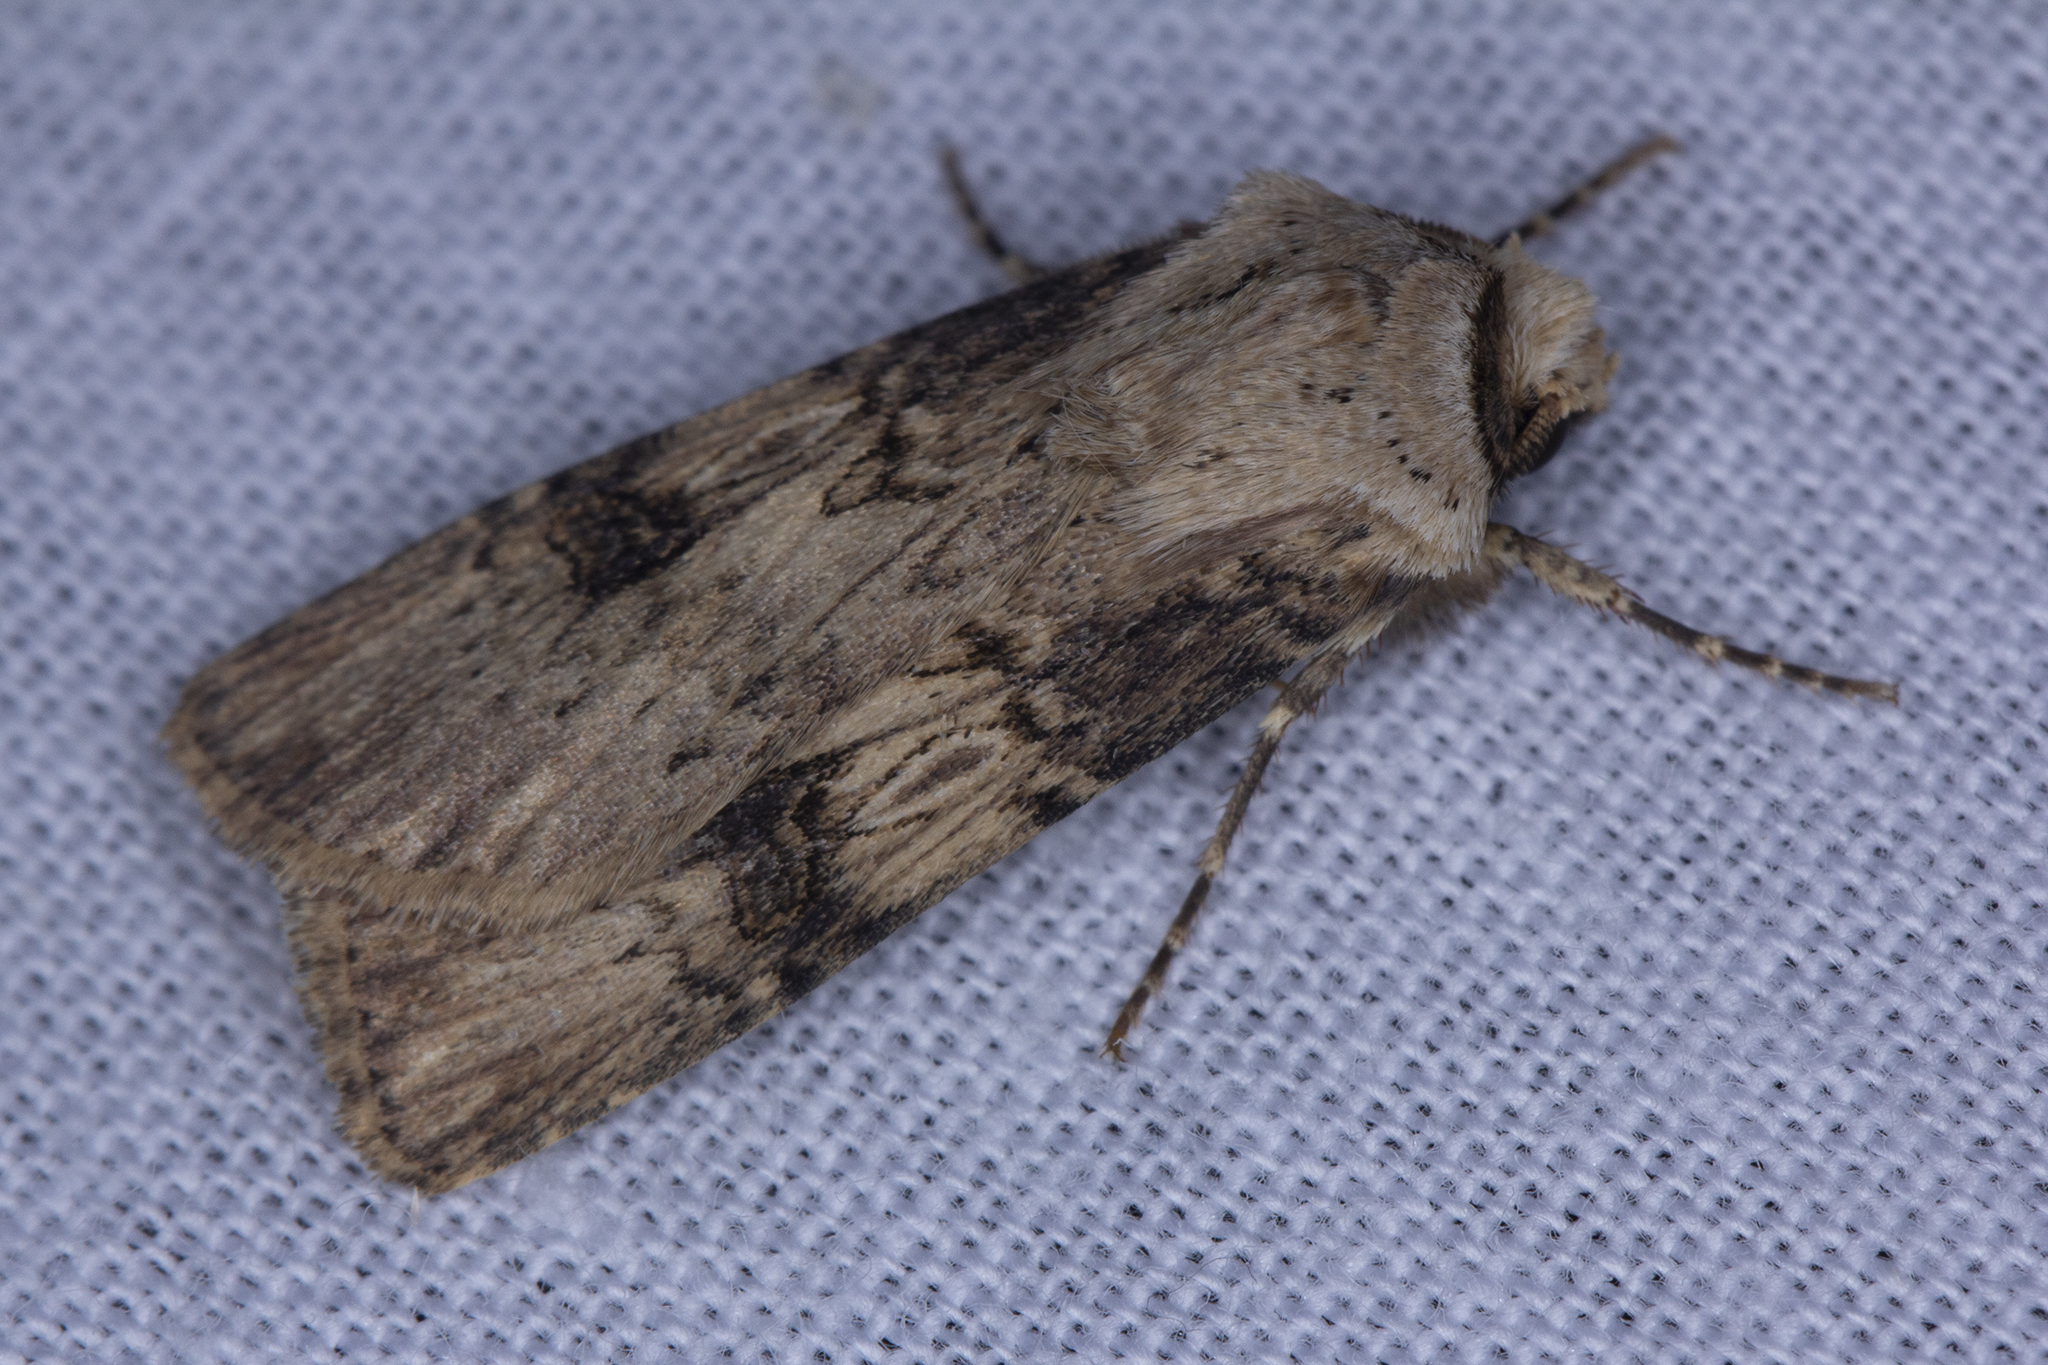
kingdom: Animalia
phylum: Arthropoda
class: Insecta
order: Lepidoptera
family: Noctuidae
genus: Agrotis
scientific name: Agrotis puta
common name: Shuttle-shaped dart
